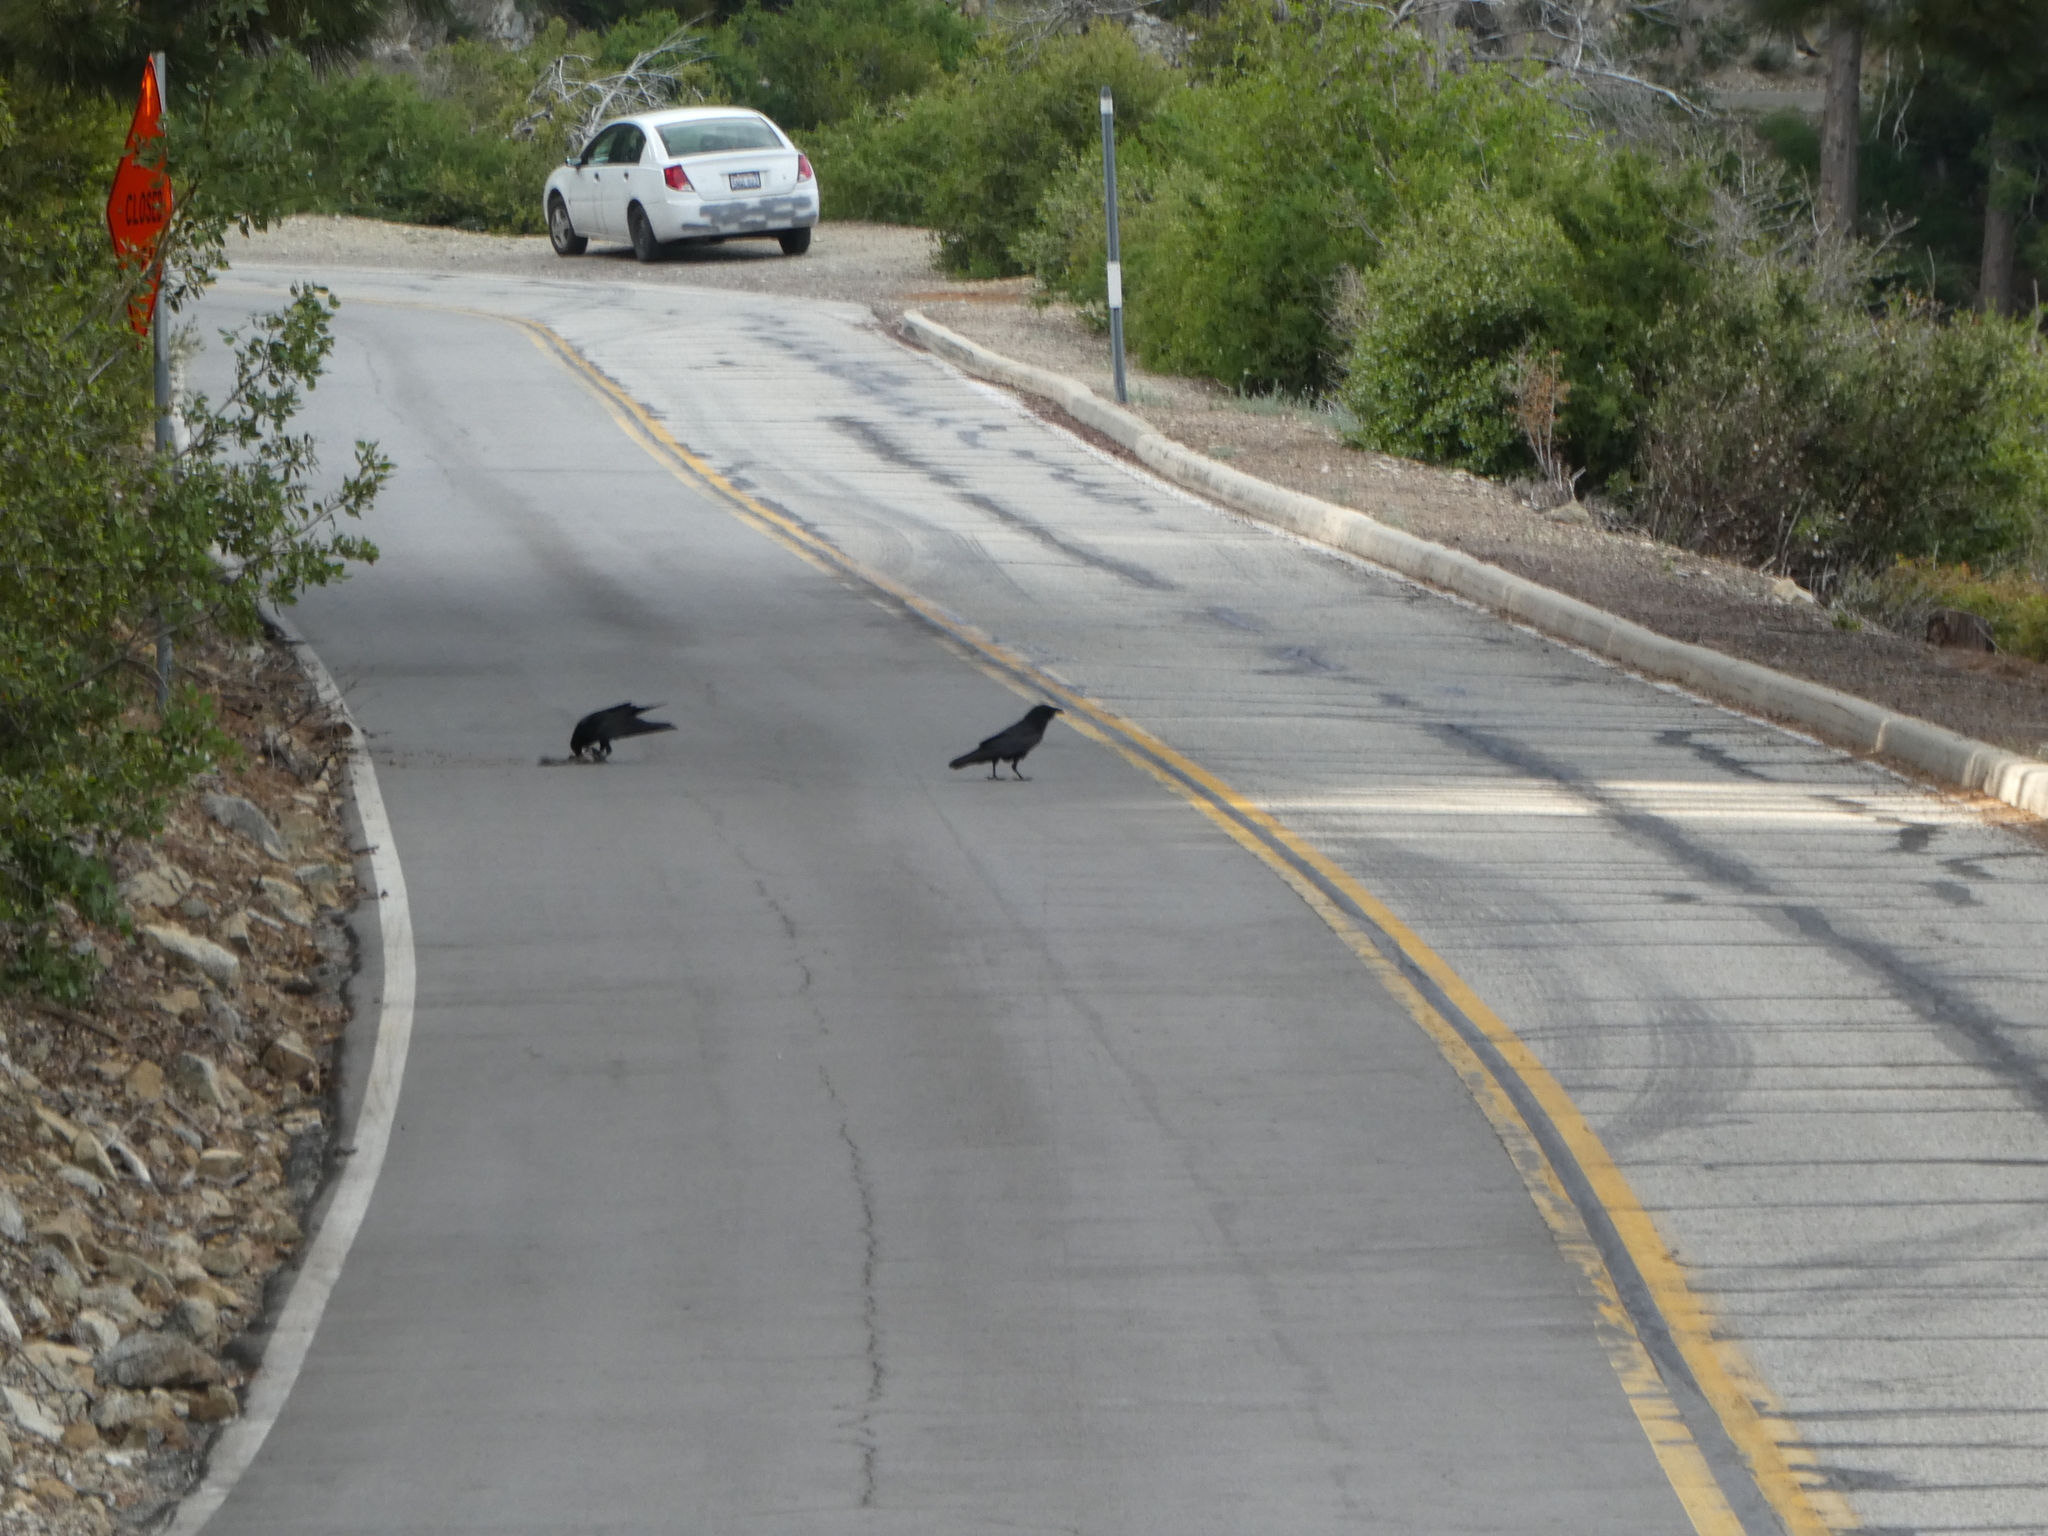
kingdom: Animalia
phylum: Chordata
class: Aves
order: Passeriformes
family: Corvidae
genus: Corvus
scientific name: Corvus corax
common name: Common raven
